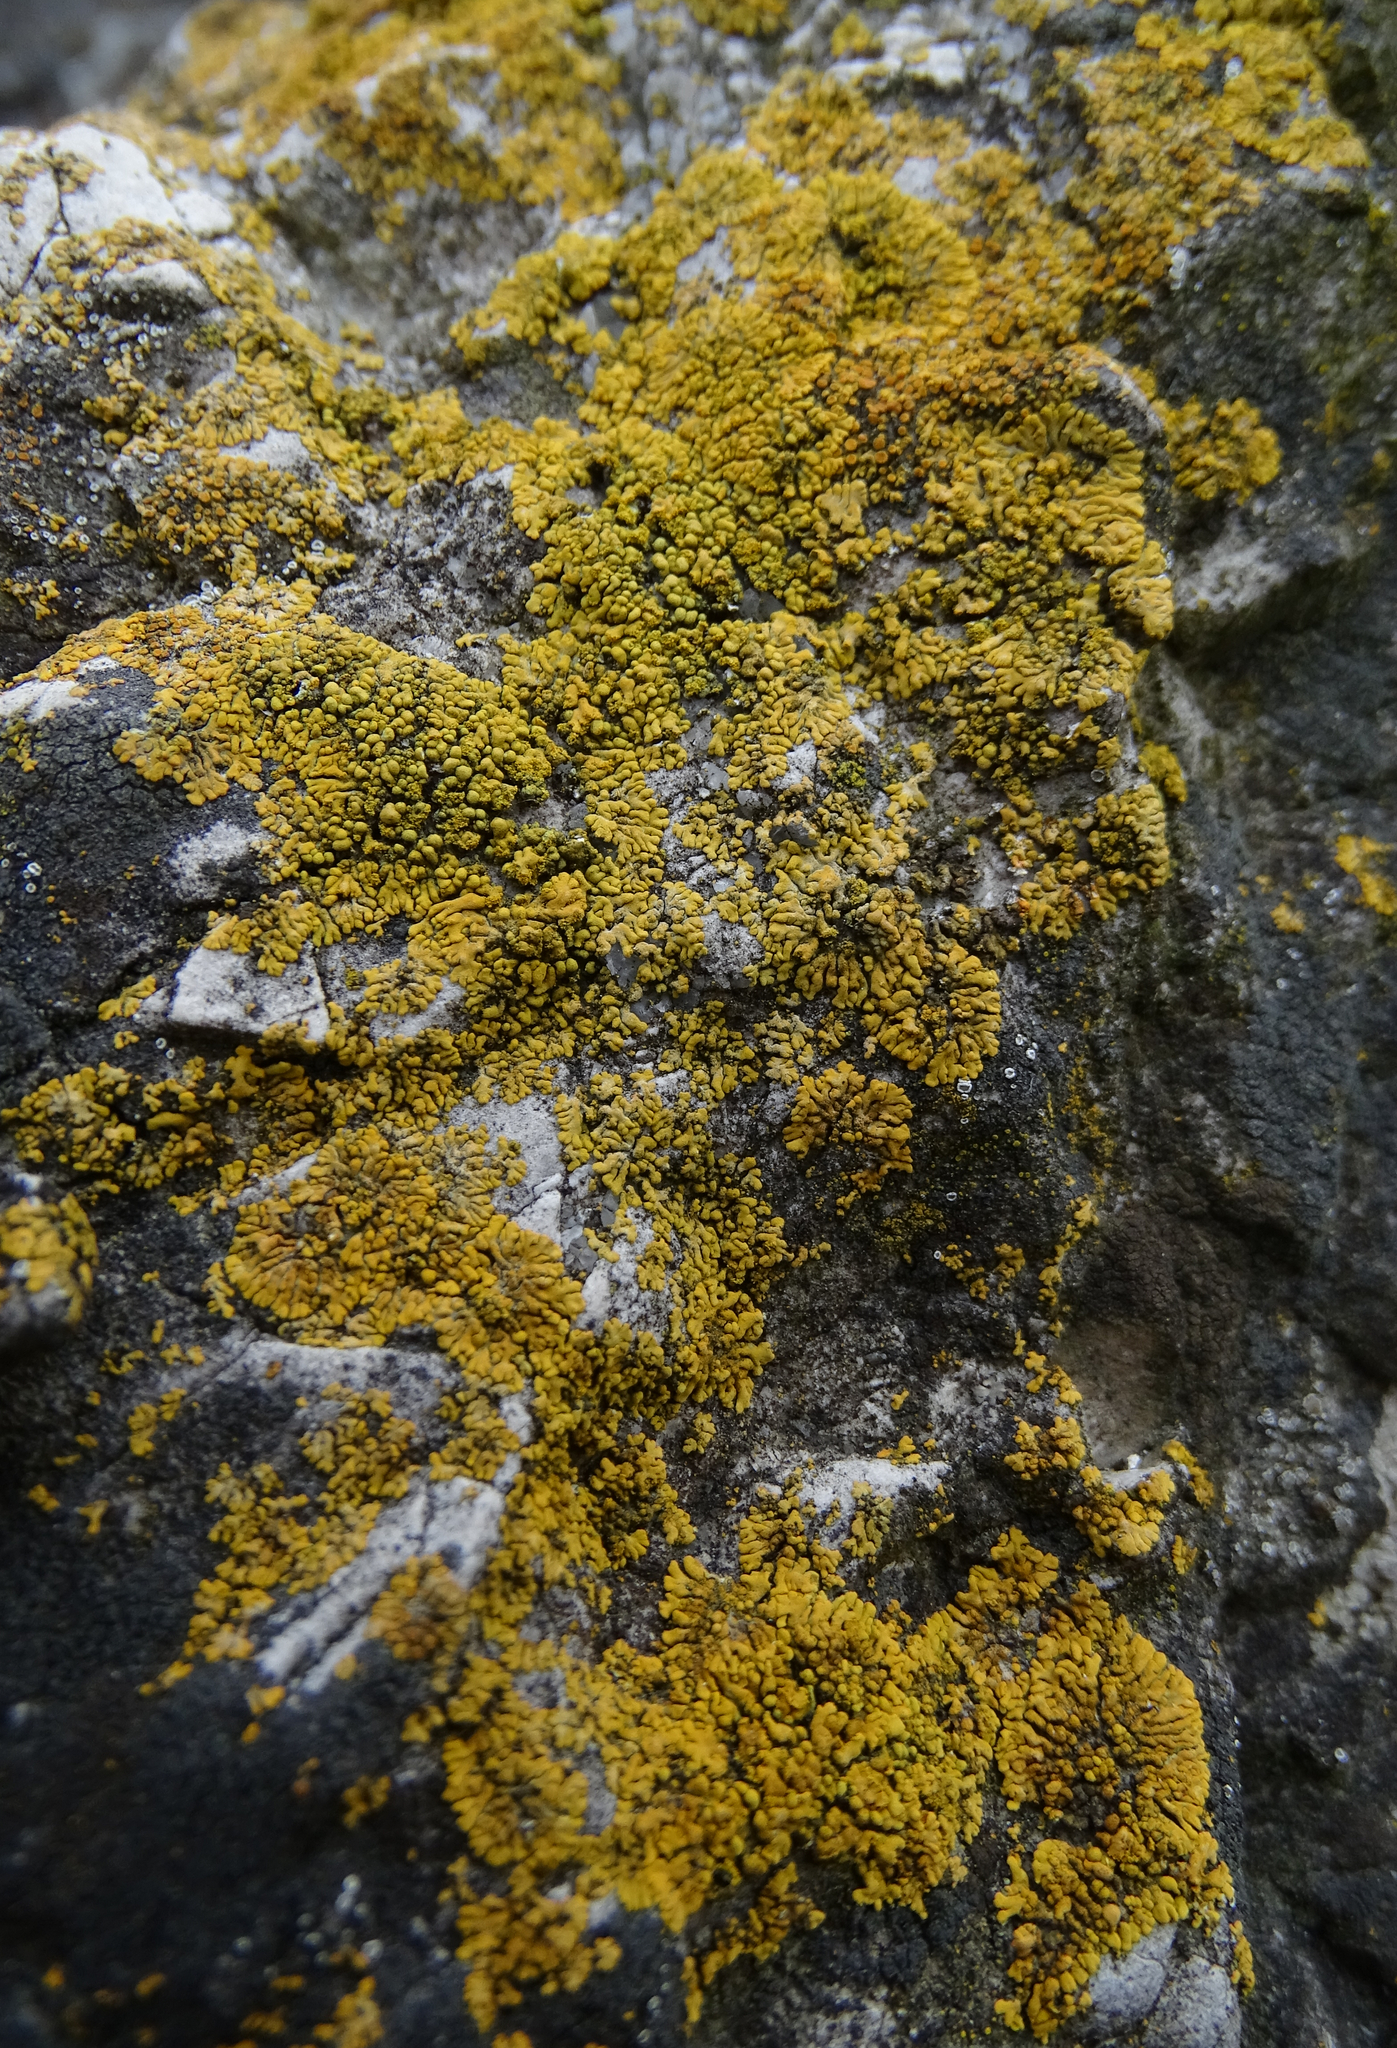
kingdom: Fungi
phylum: Ascomycota
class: Lecanoromycetes
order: Teloschistales
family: Teloschistaceae
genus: Calogaya
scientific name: Calogaya decipiens
